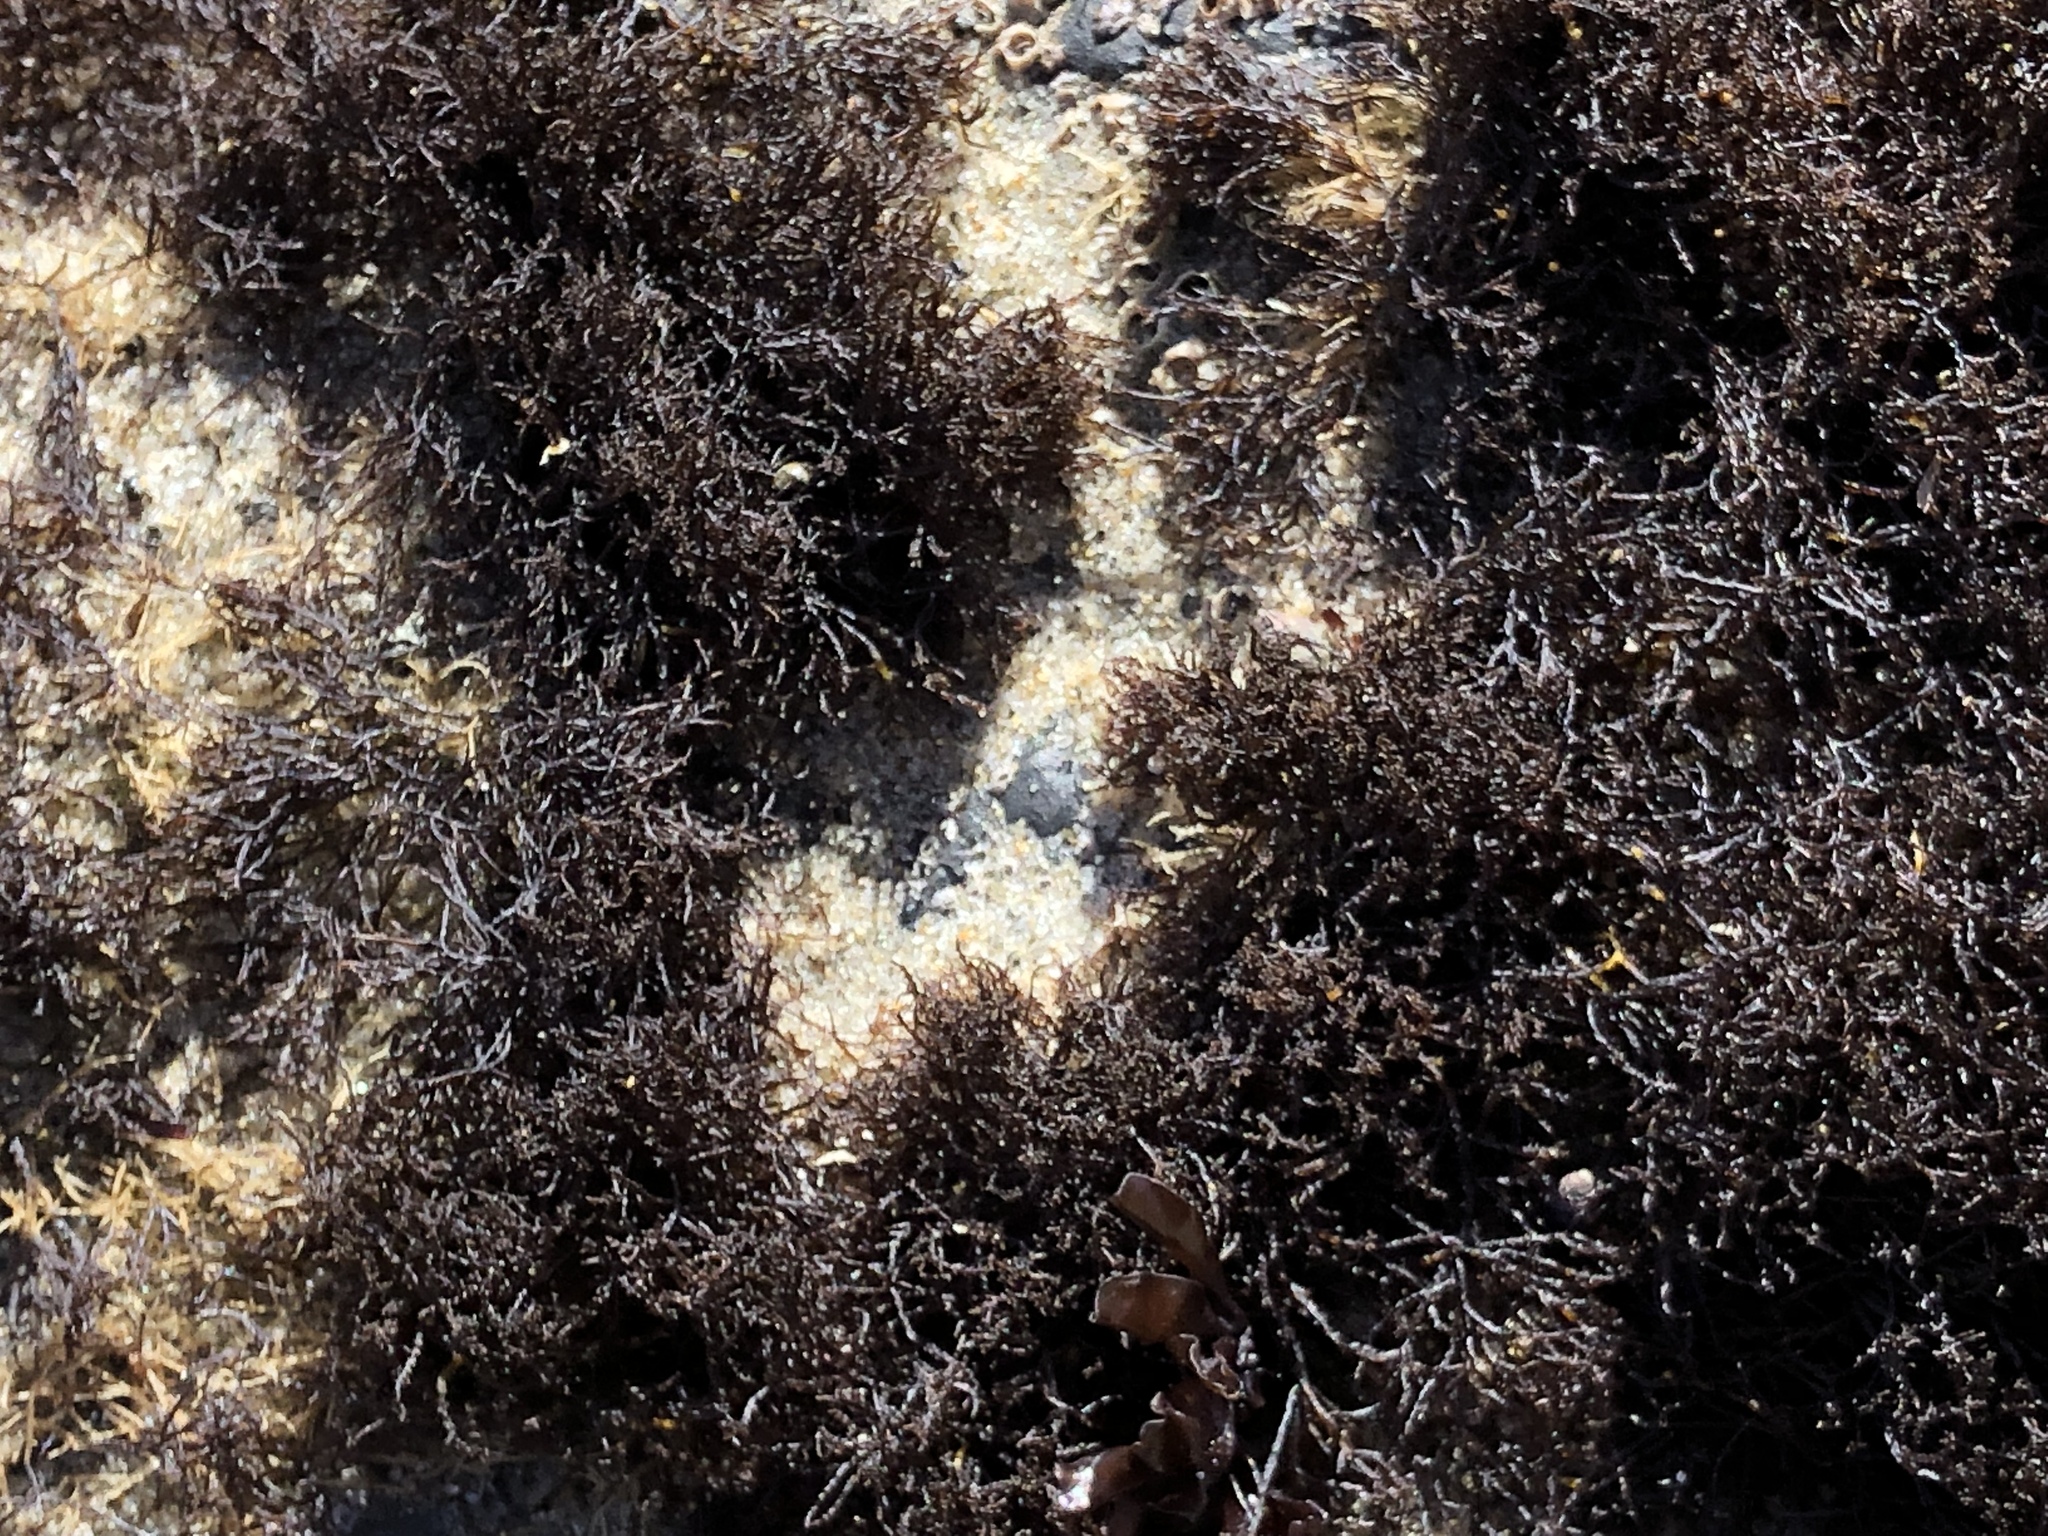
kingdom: Plantae
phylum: Rhodophyta
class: Florideophyceae
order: Gigartinales
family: Endocladiaceae
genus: Endocladia
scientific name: Endocladia muricata
